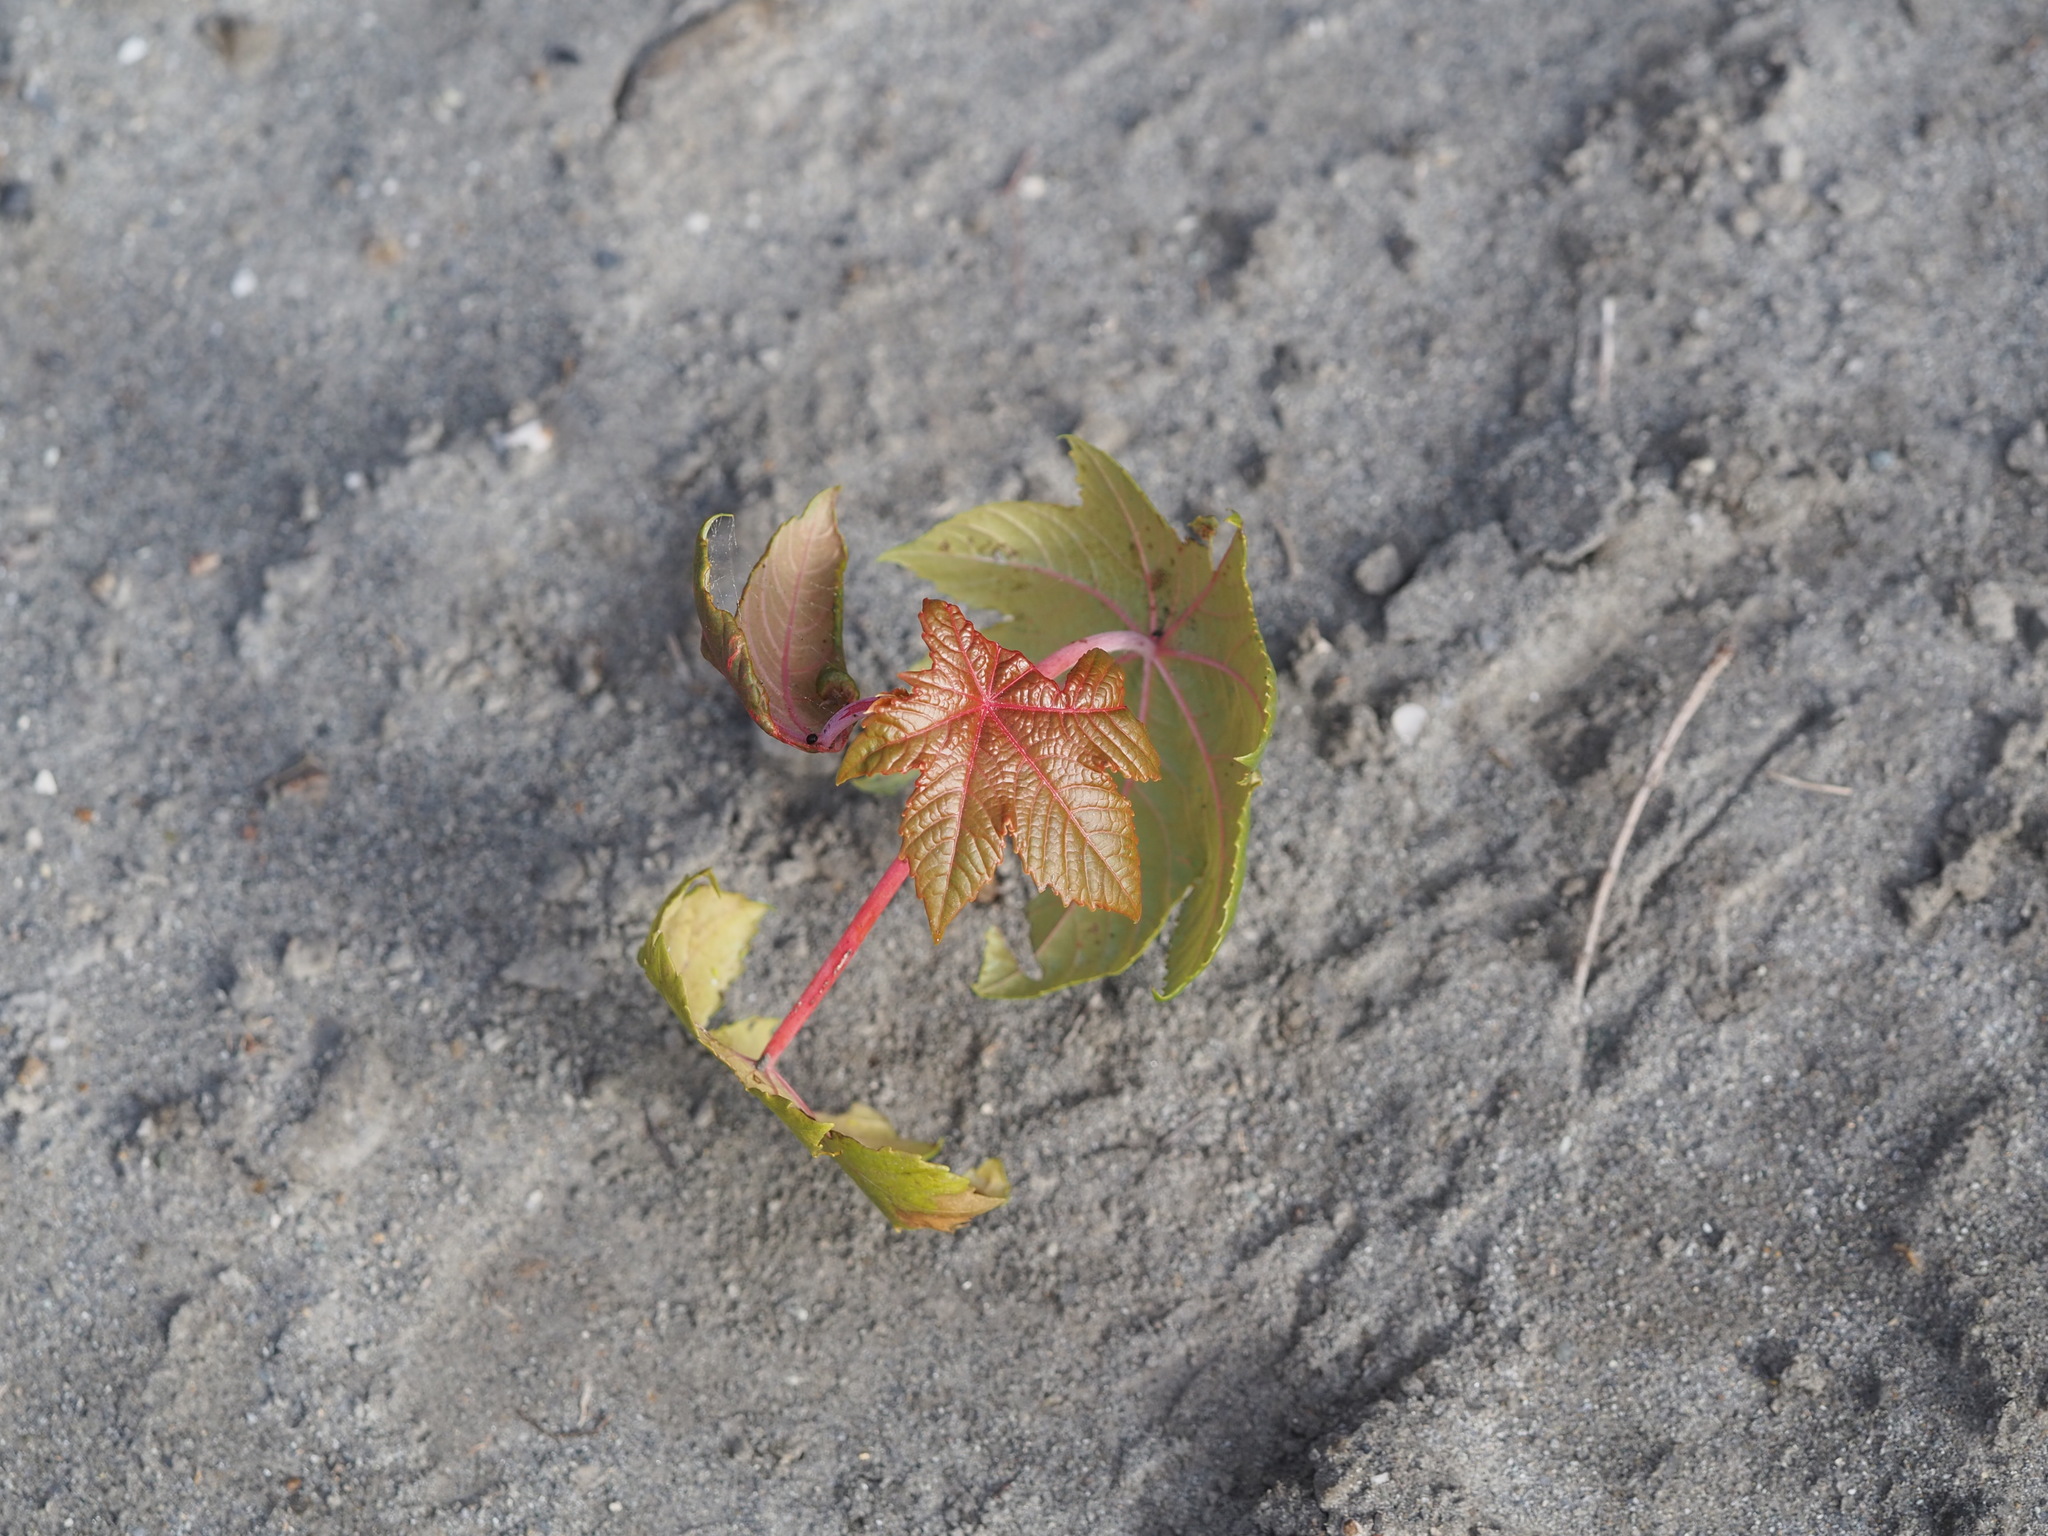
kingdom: Plantae
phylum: Tracheophyta
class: Magnoliopsida
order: Malpighiales
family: Euphorbiaceae
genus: Ricinus
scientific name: Ricinus communis
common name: Castor-oil-plant
